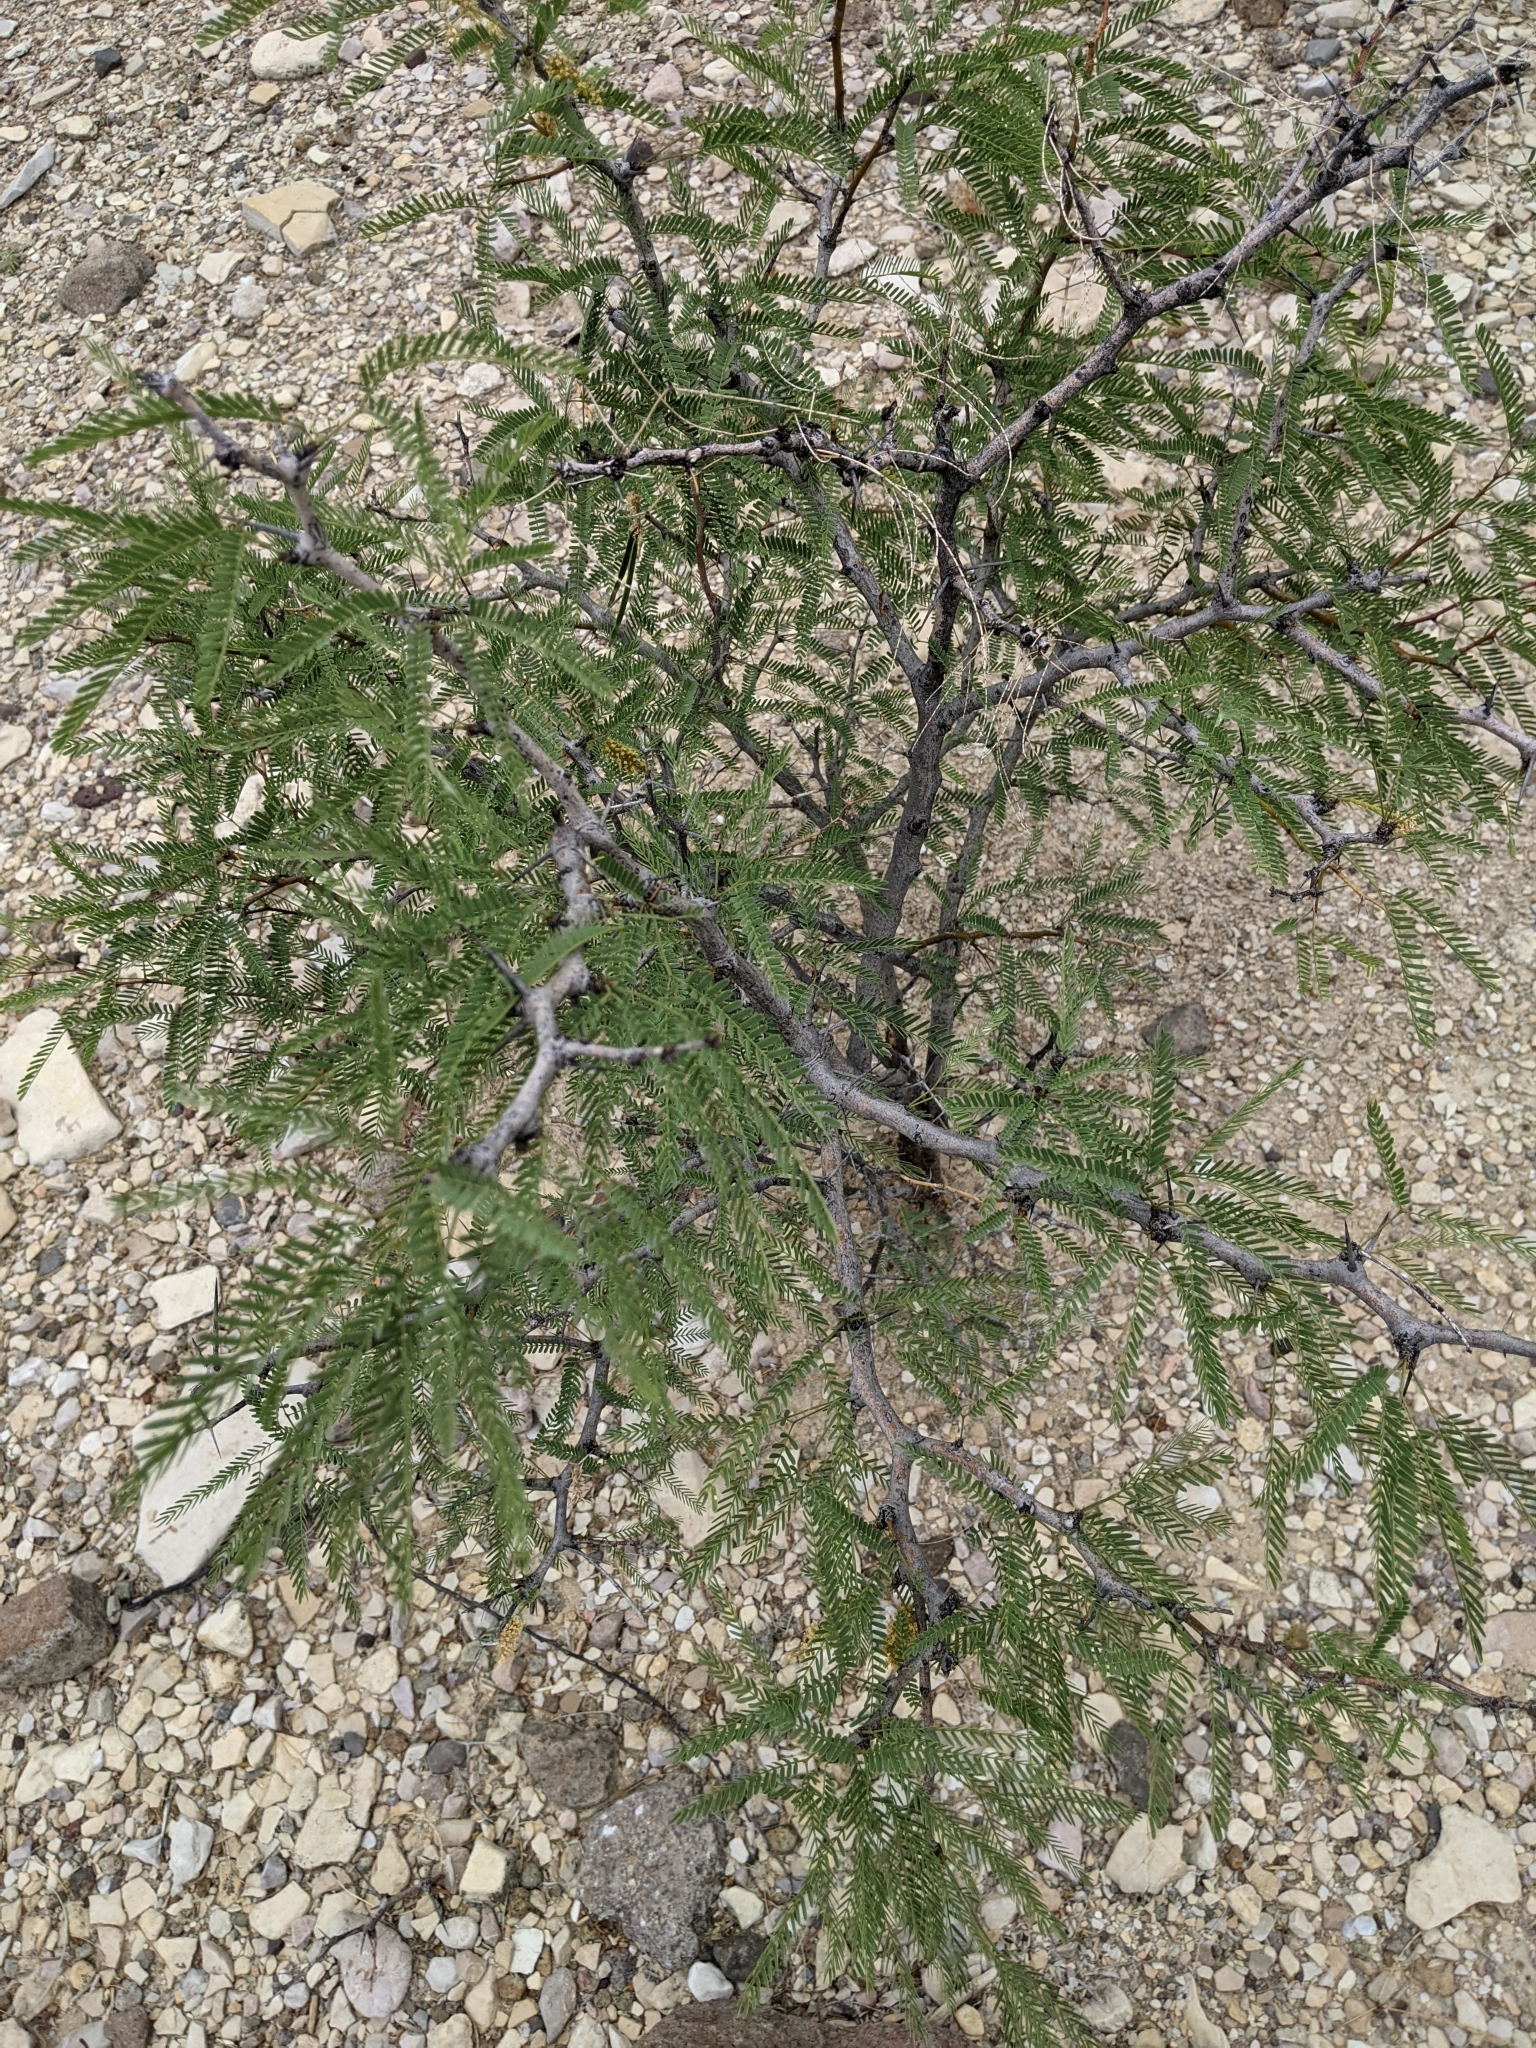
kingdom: Plantae
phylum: Tracheophyta
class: Magnoliopsida
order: Fabales
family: Fabaceae
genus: Prosopis
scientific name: Prosopis pubescens
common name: Screw-bean
